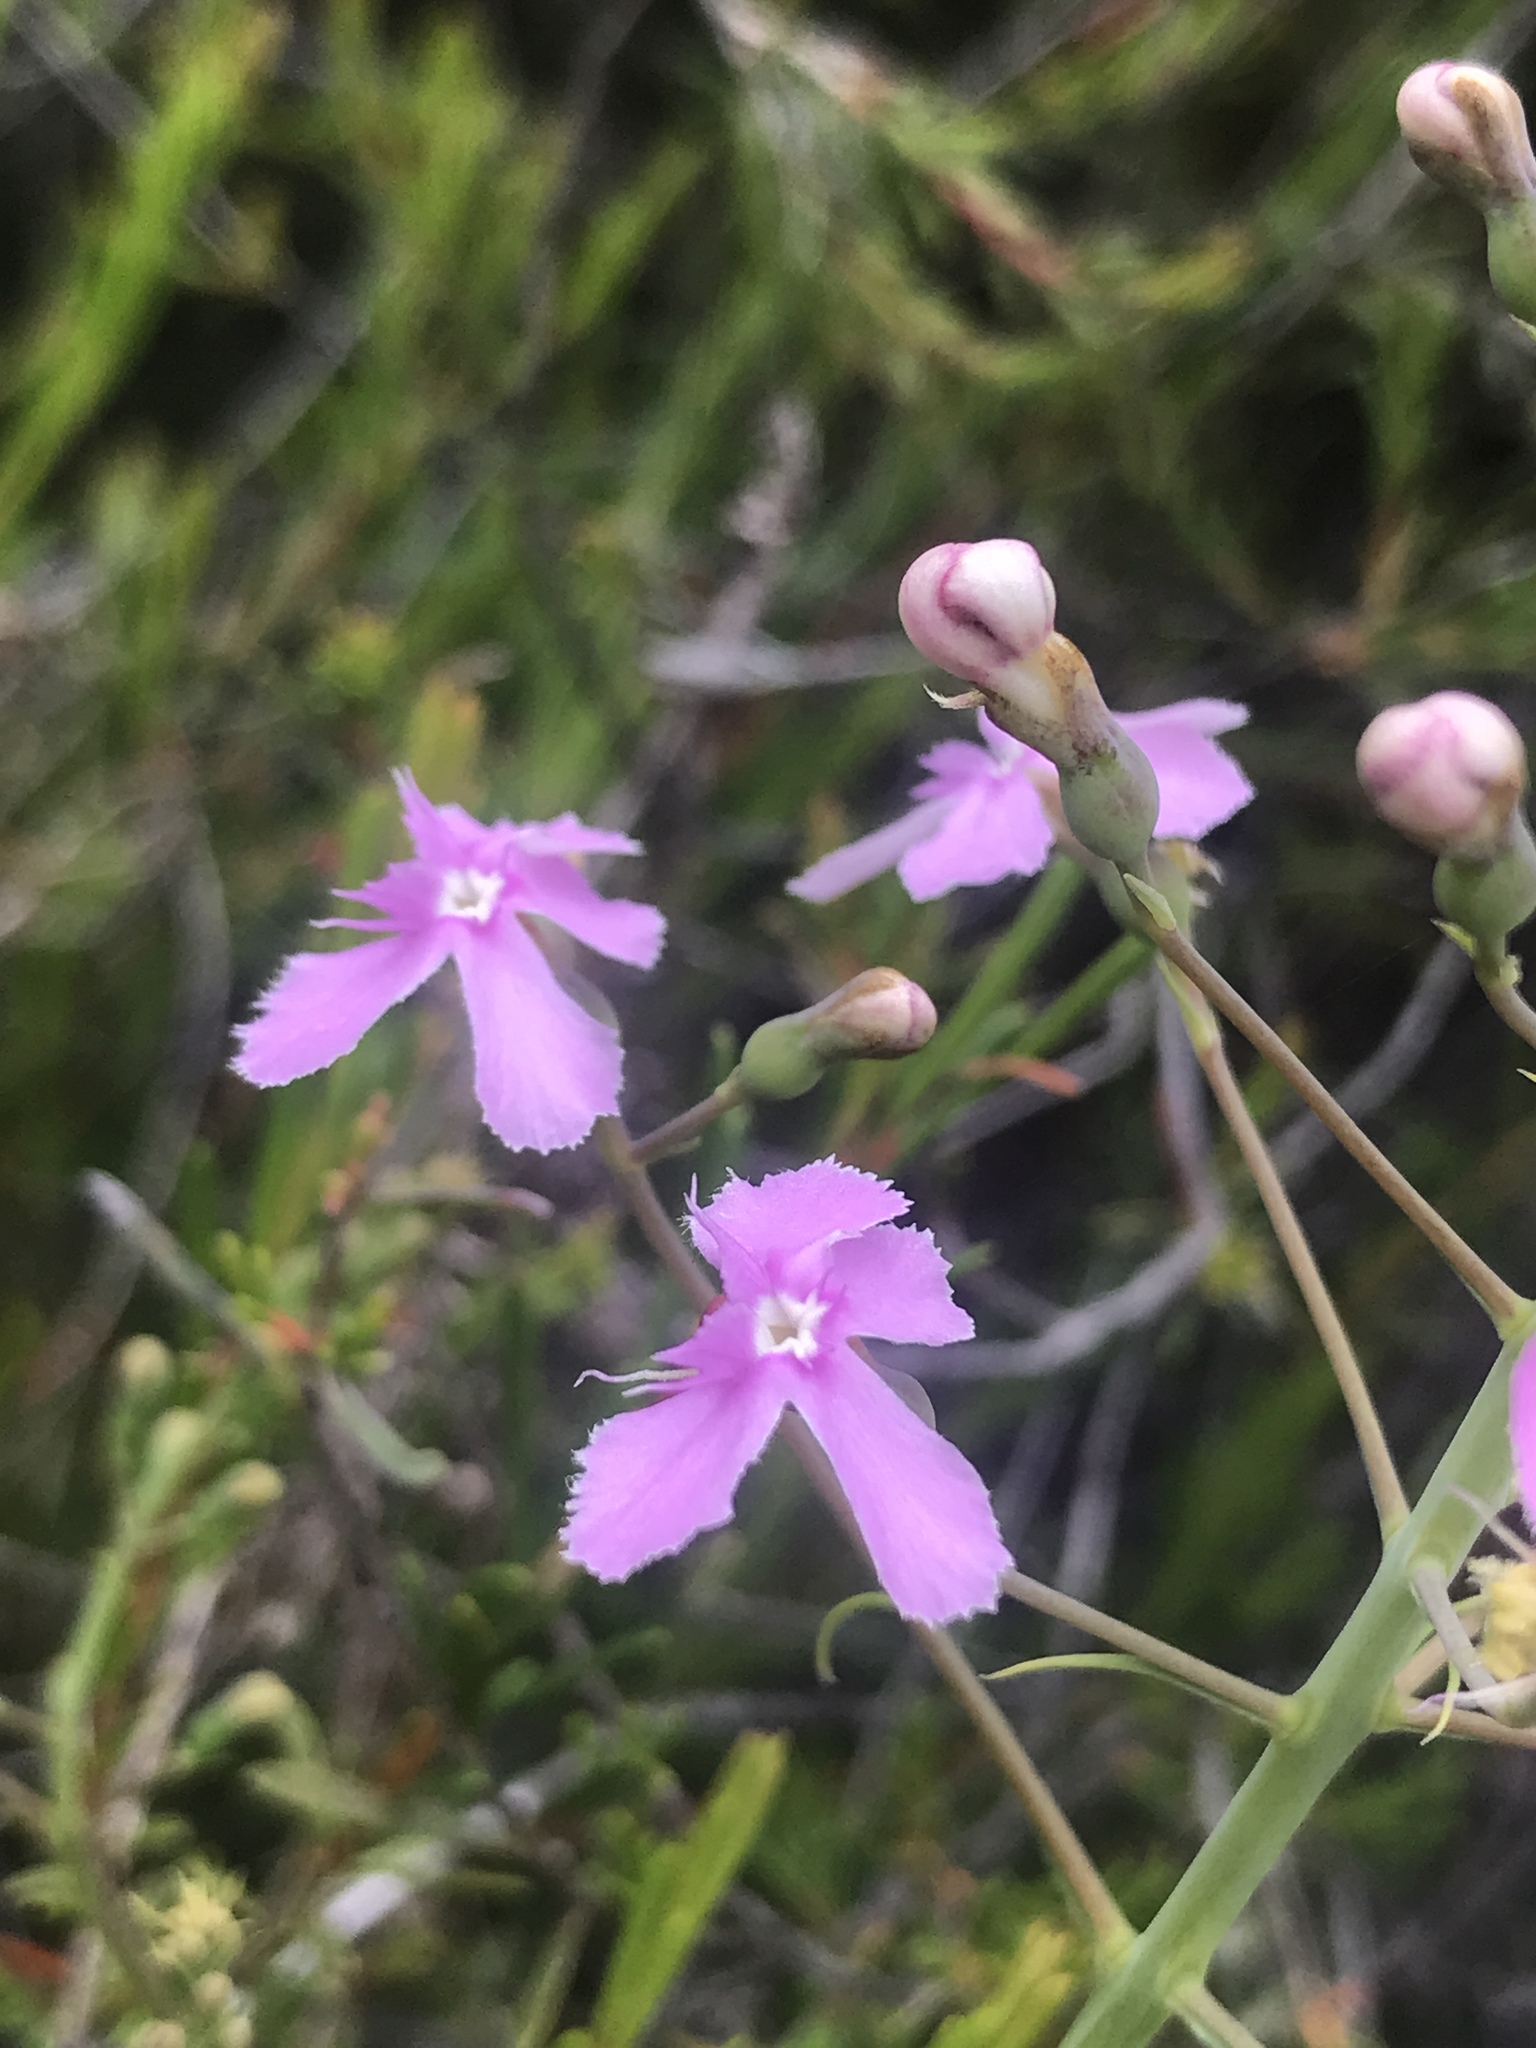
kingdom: Plantae
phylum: Tracheophyta
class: Magnoliopsida
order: Asterales
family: Stylidiaceae
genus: Stylidium
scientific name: Stylidium nymphaeum
